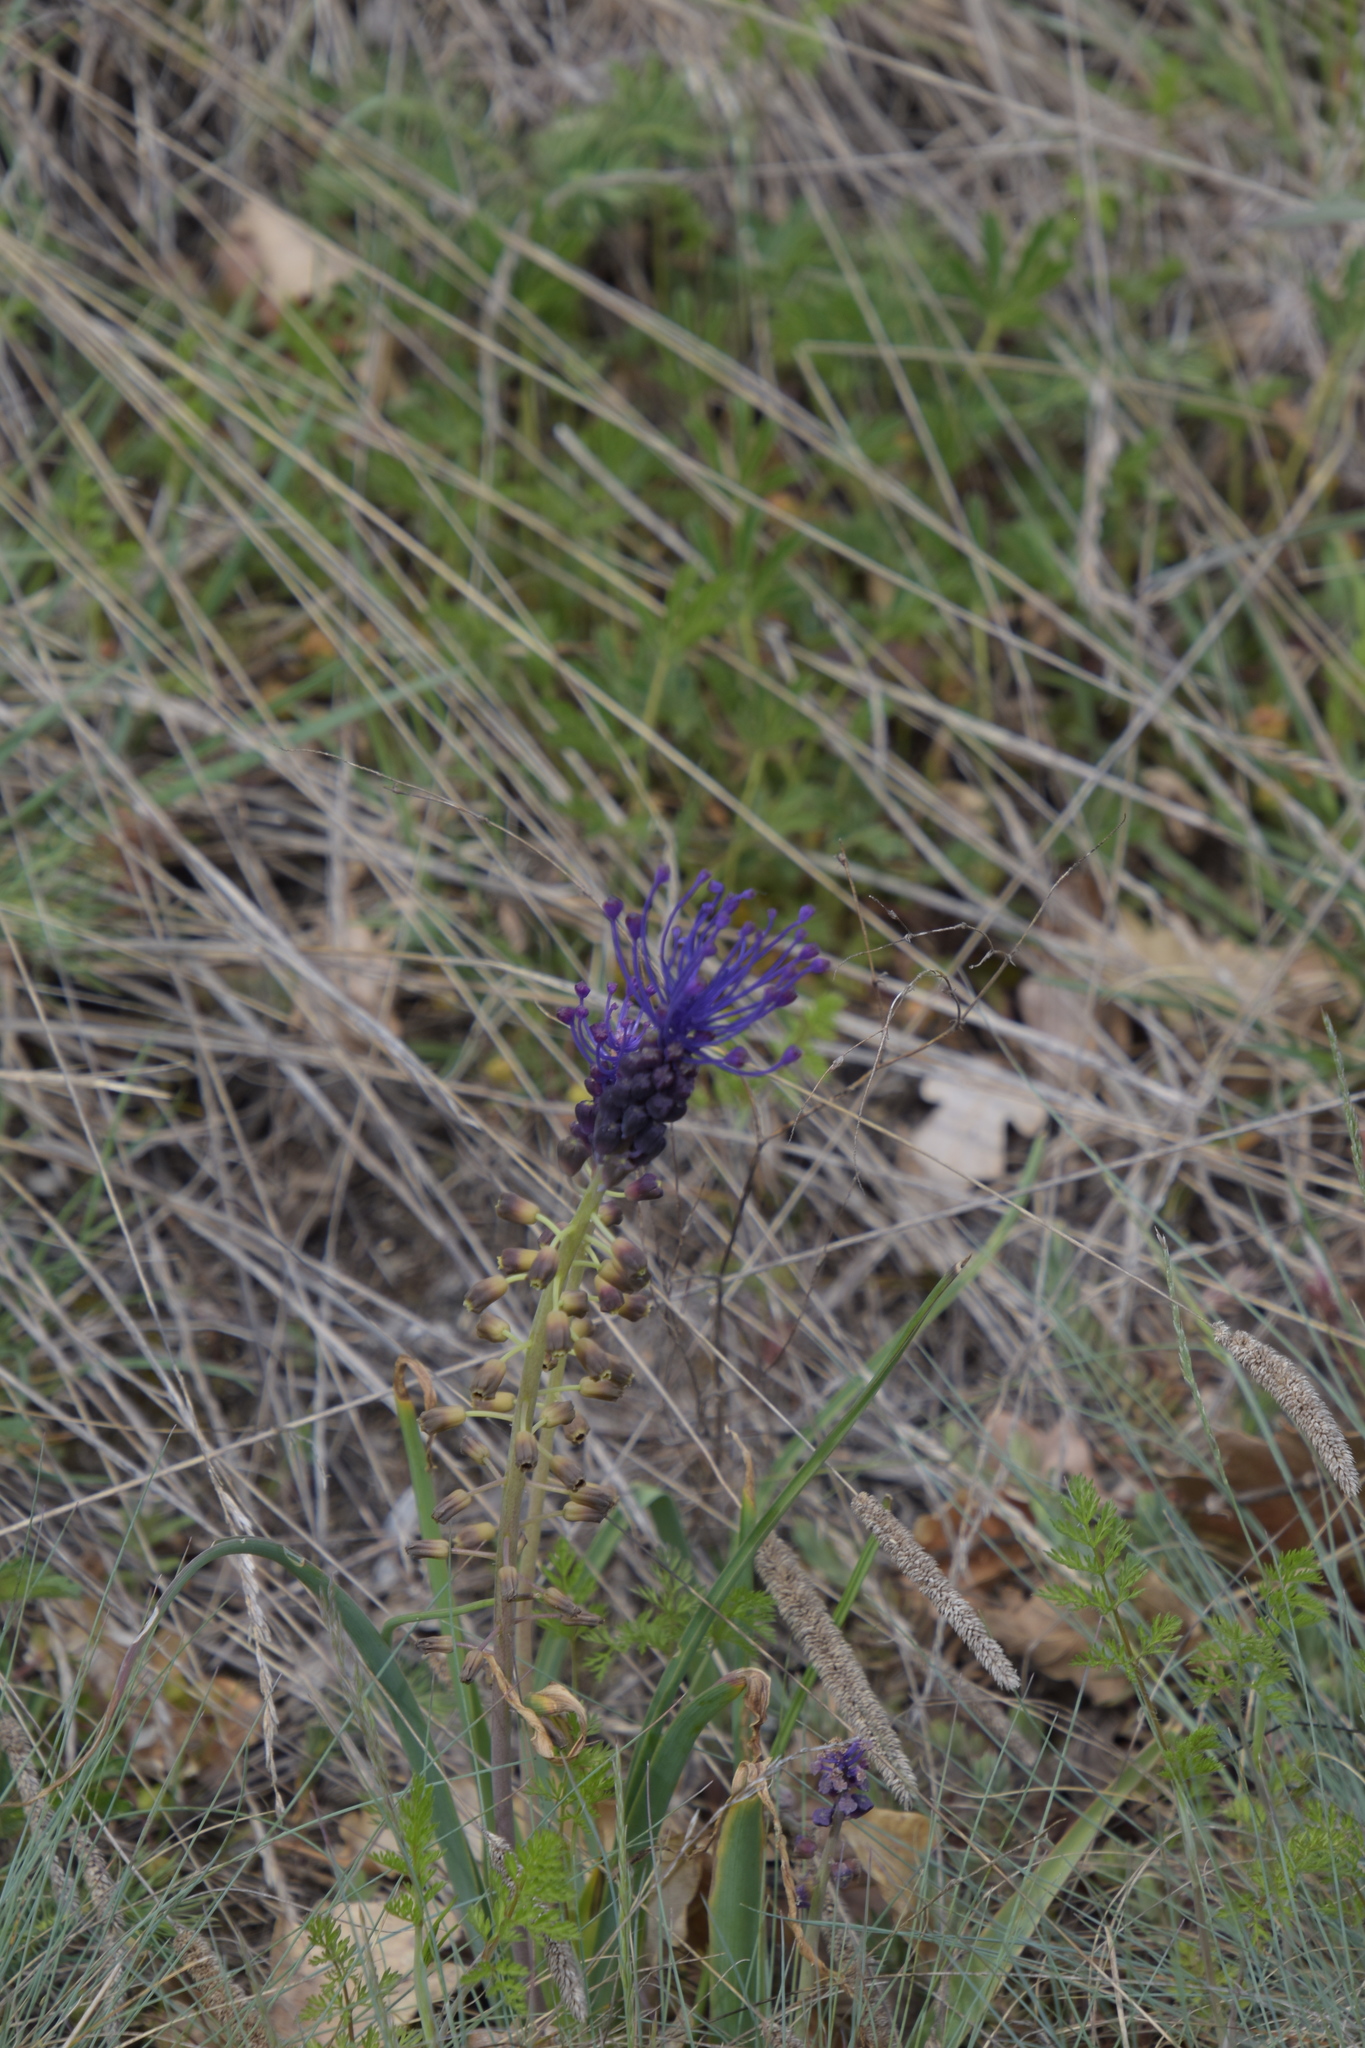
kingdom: Plantae
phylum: Tracheophyta
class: Liliopsida
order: Asparagales
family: Asparagaceae
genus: Muscari
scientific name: Muscari comosum
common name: Tassel hyacinth
